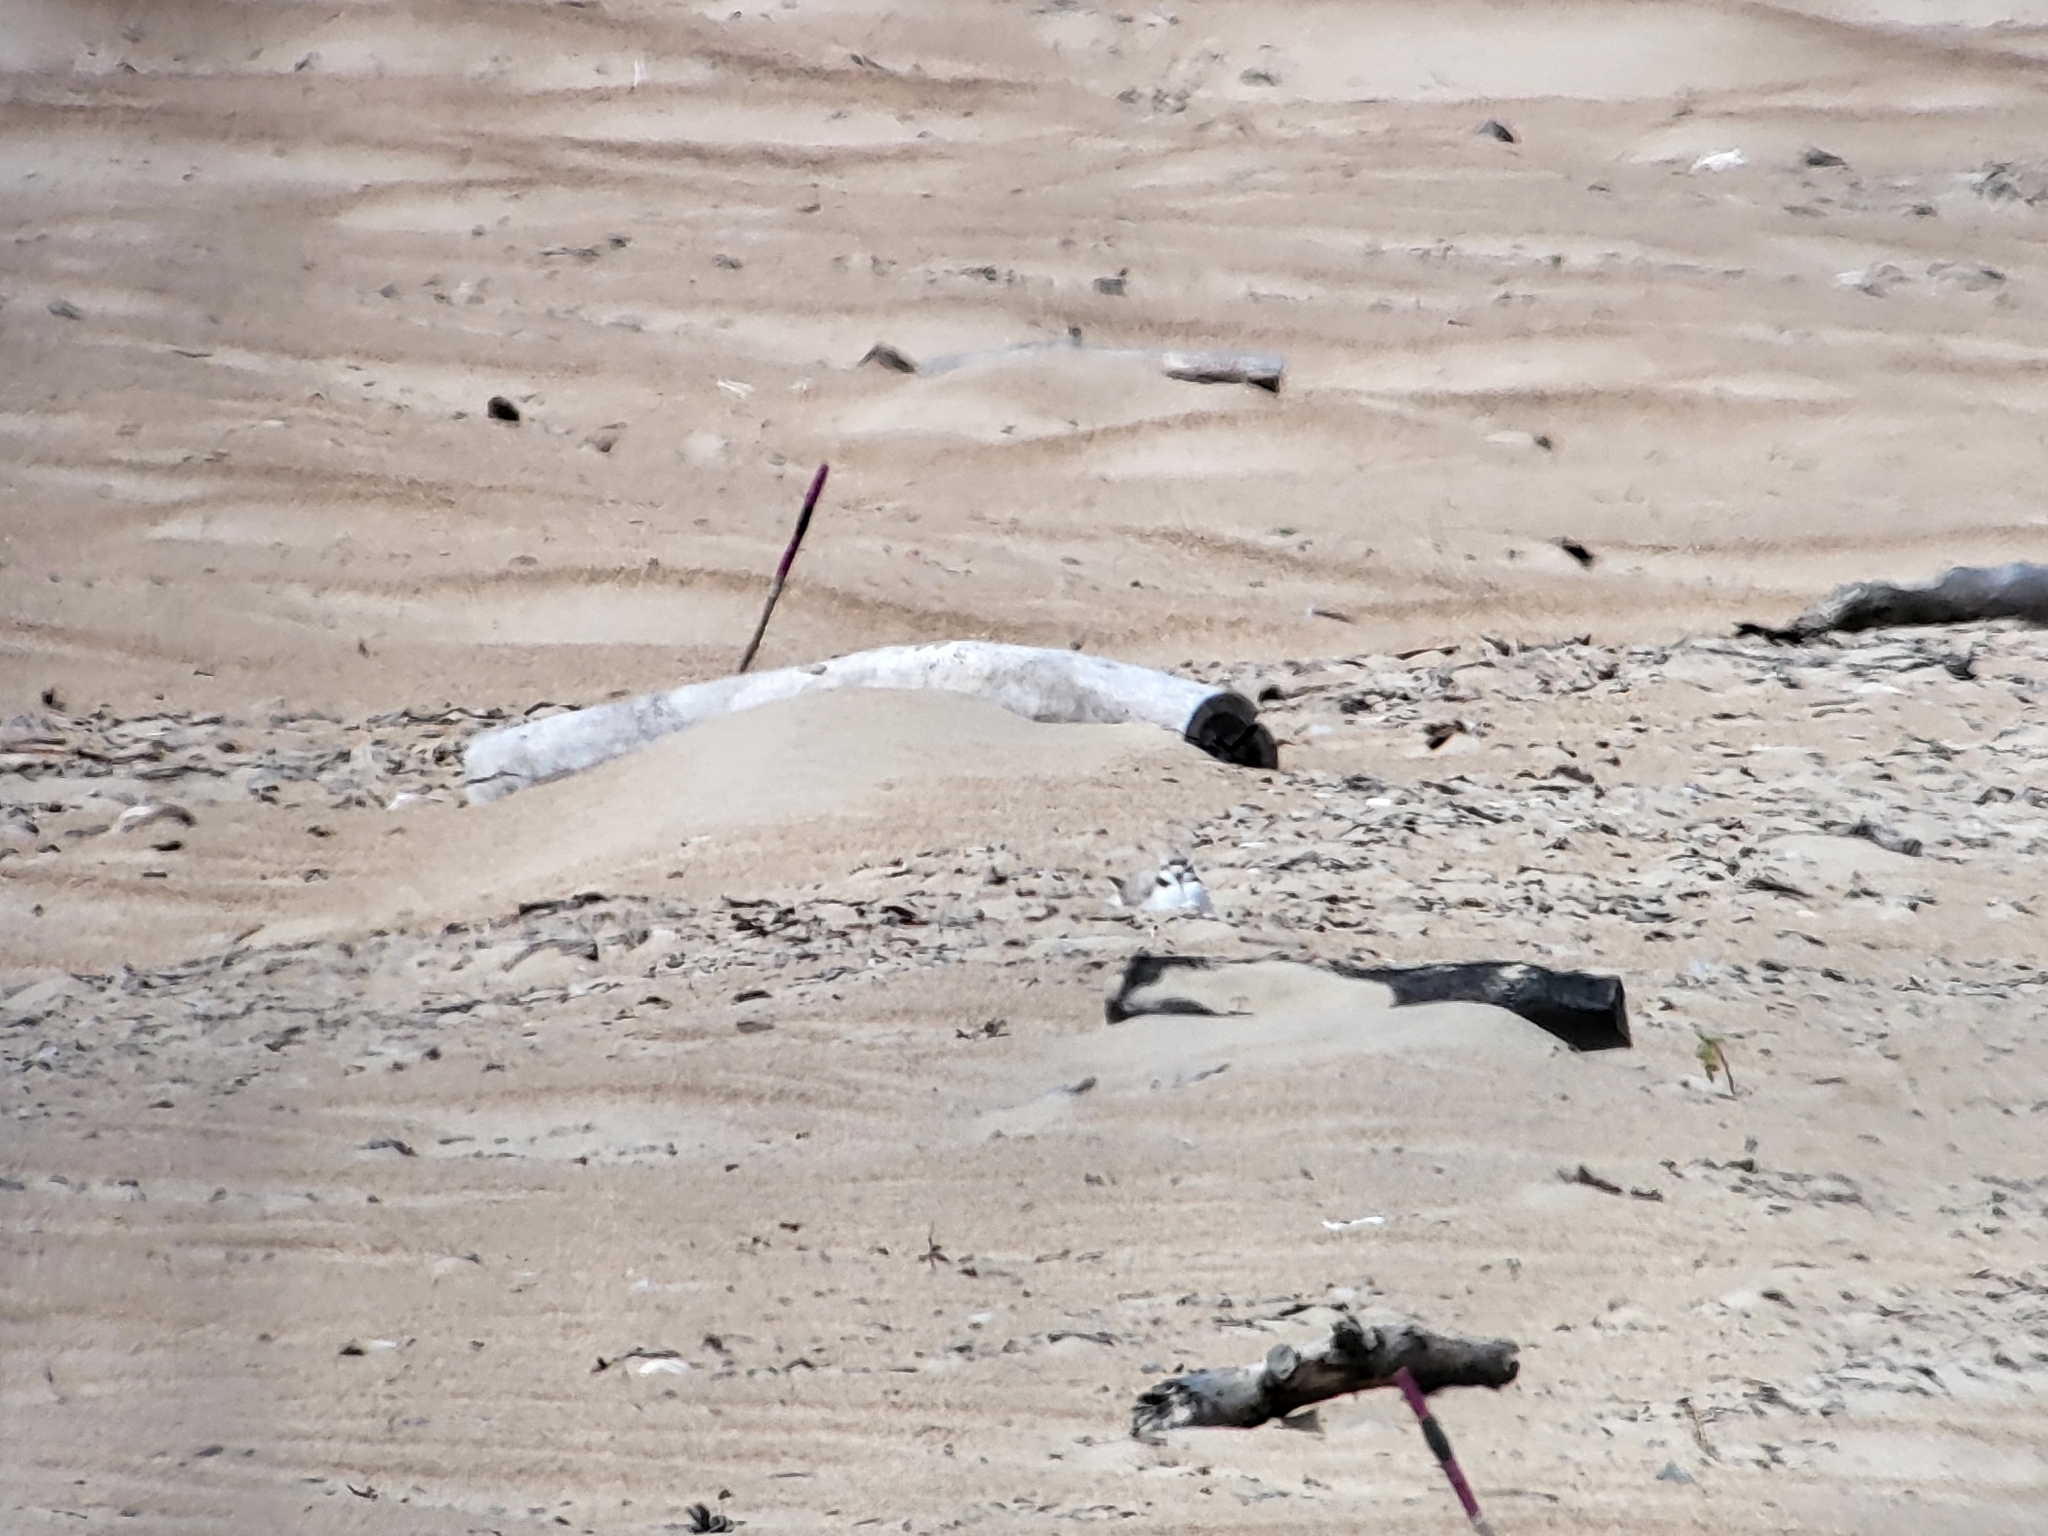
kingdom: Animalia
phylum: Chordata
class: Aves
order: Charadriiformes
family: Charadriidae
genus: Anarhynchus
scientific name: Anarhynchus
